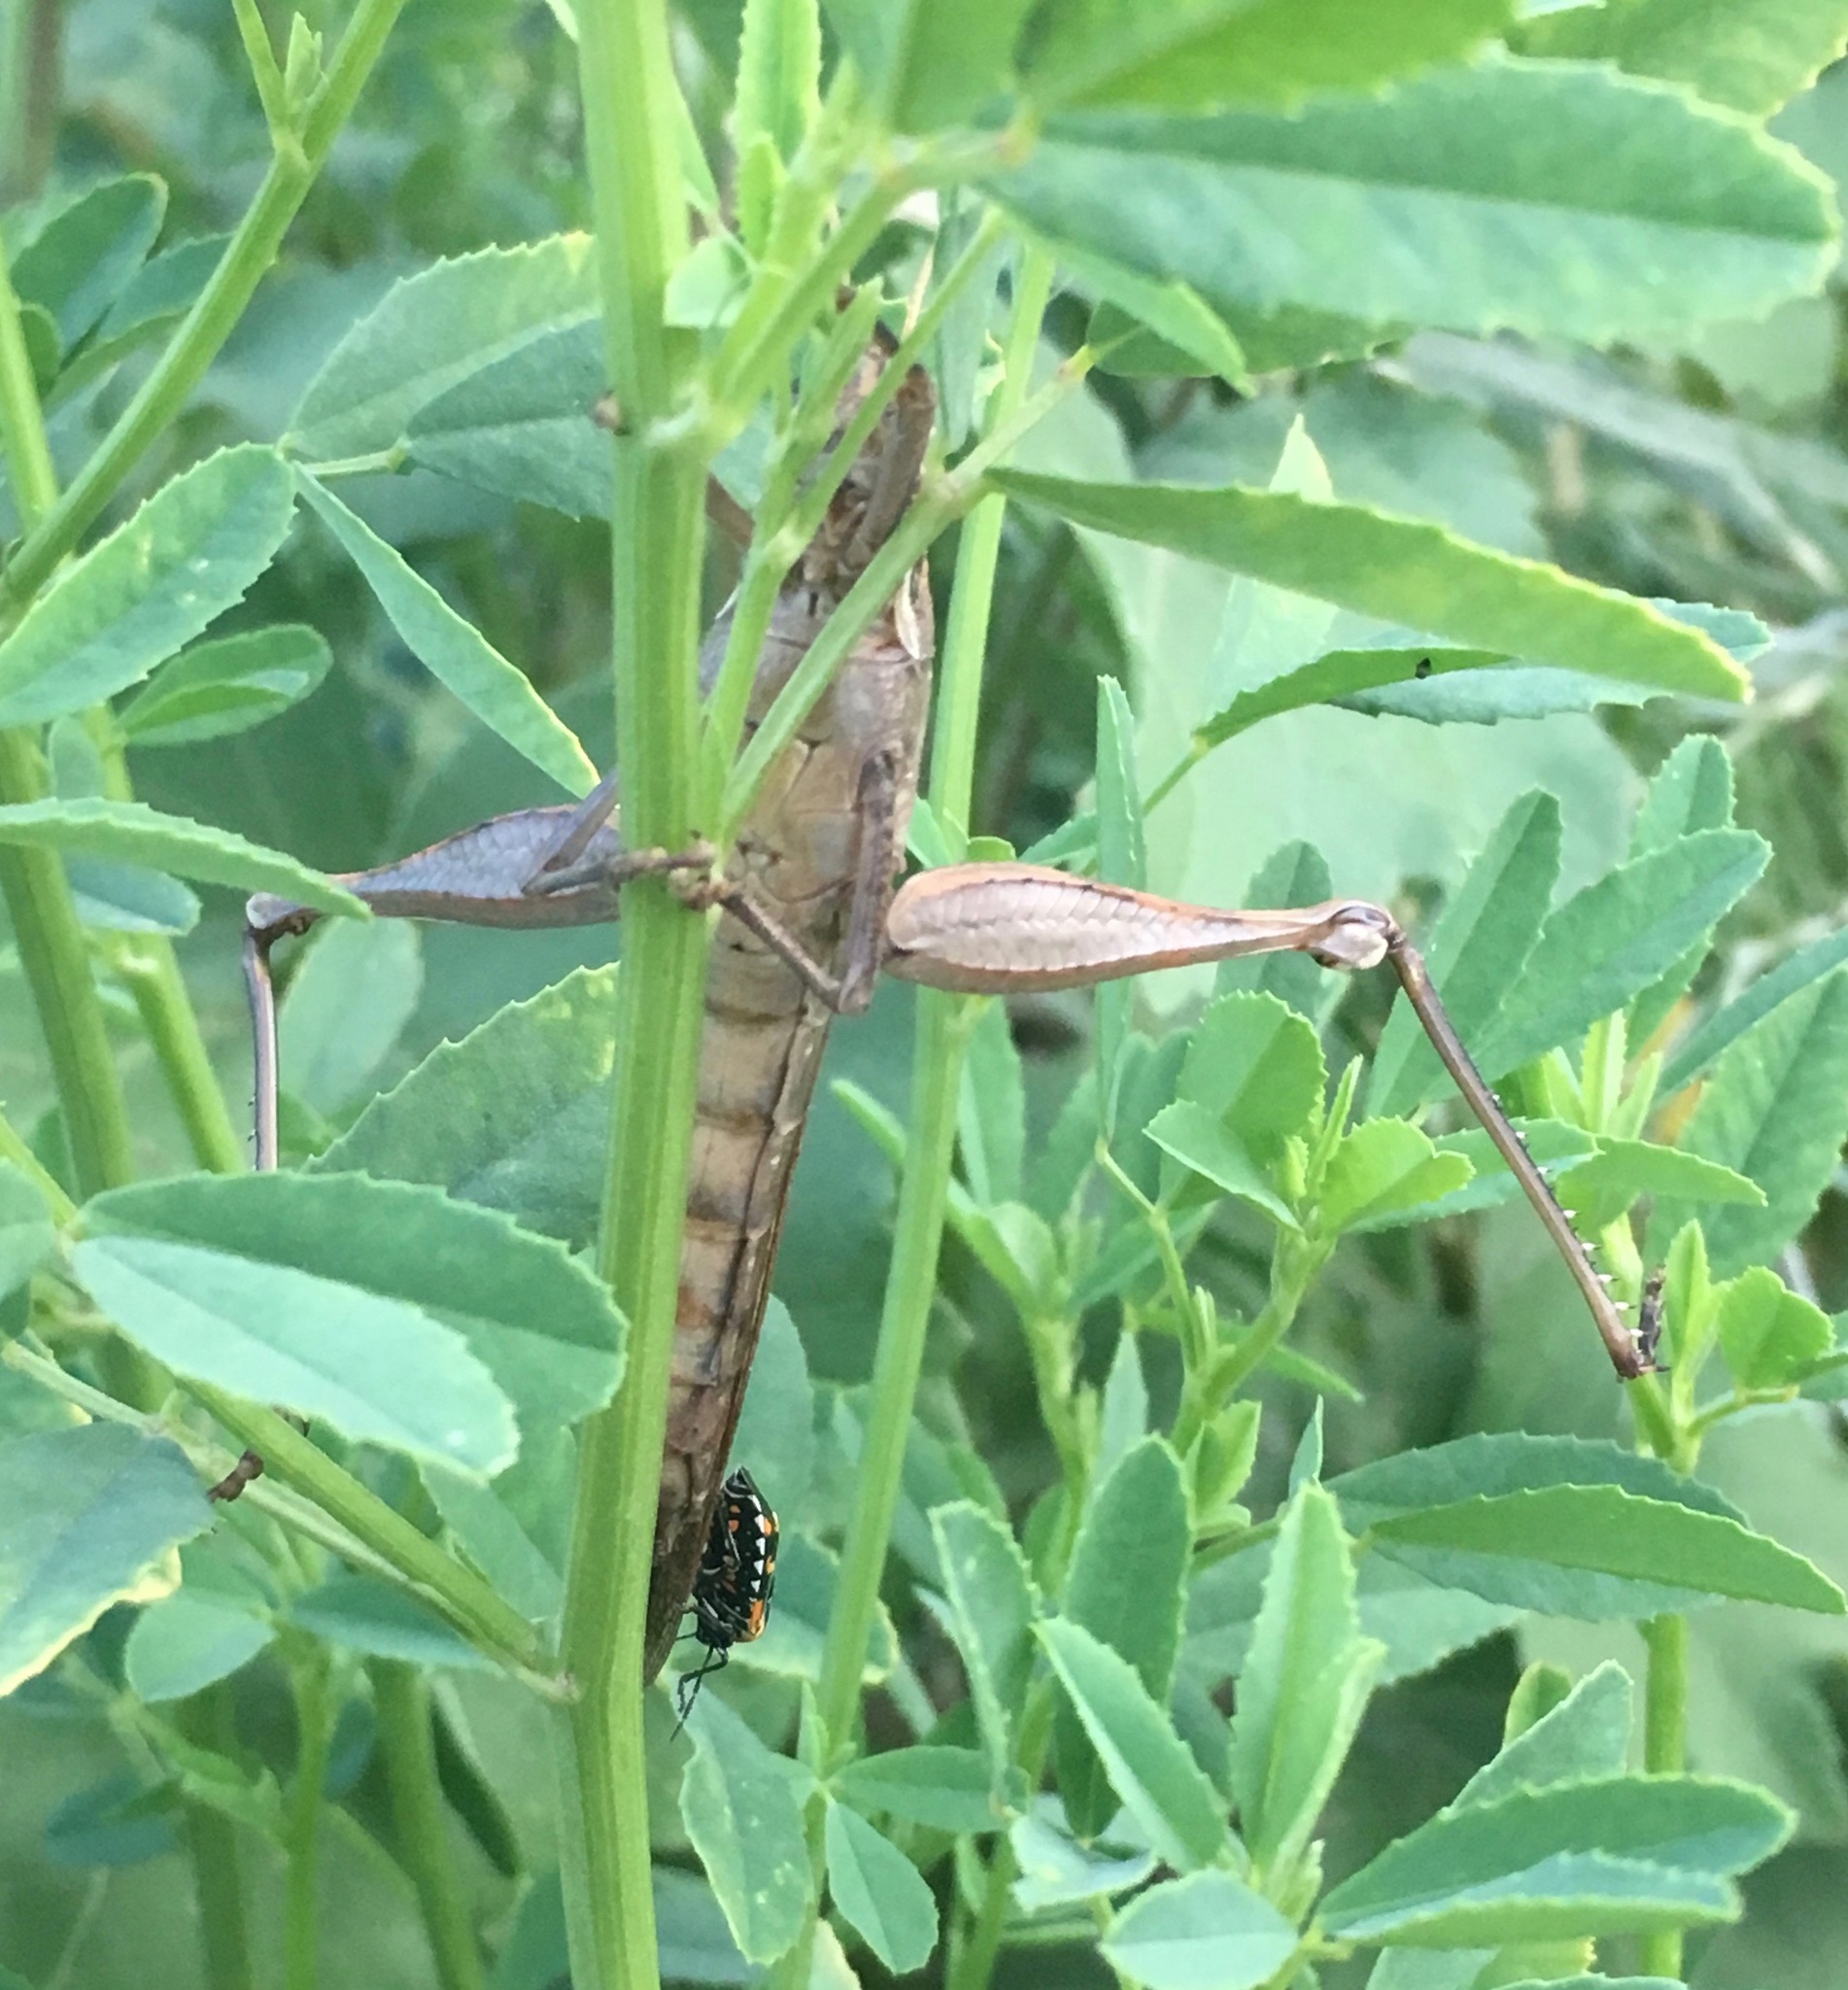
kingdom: Animalia
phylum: Arthropoda
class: Insecta
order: Orthoptera
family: Acrididae
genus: Schistocerca
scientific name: Schistocerca nitens
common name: Vagrant grasshopper
